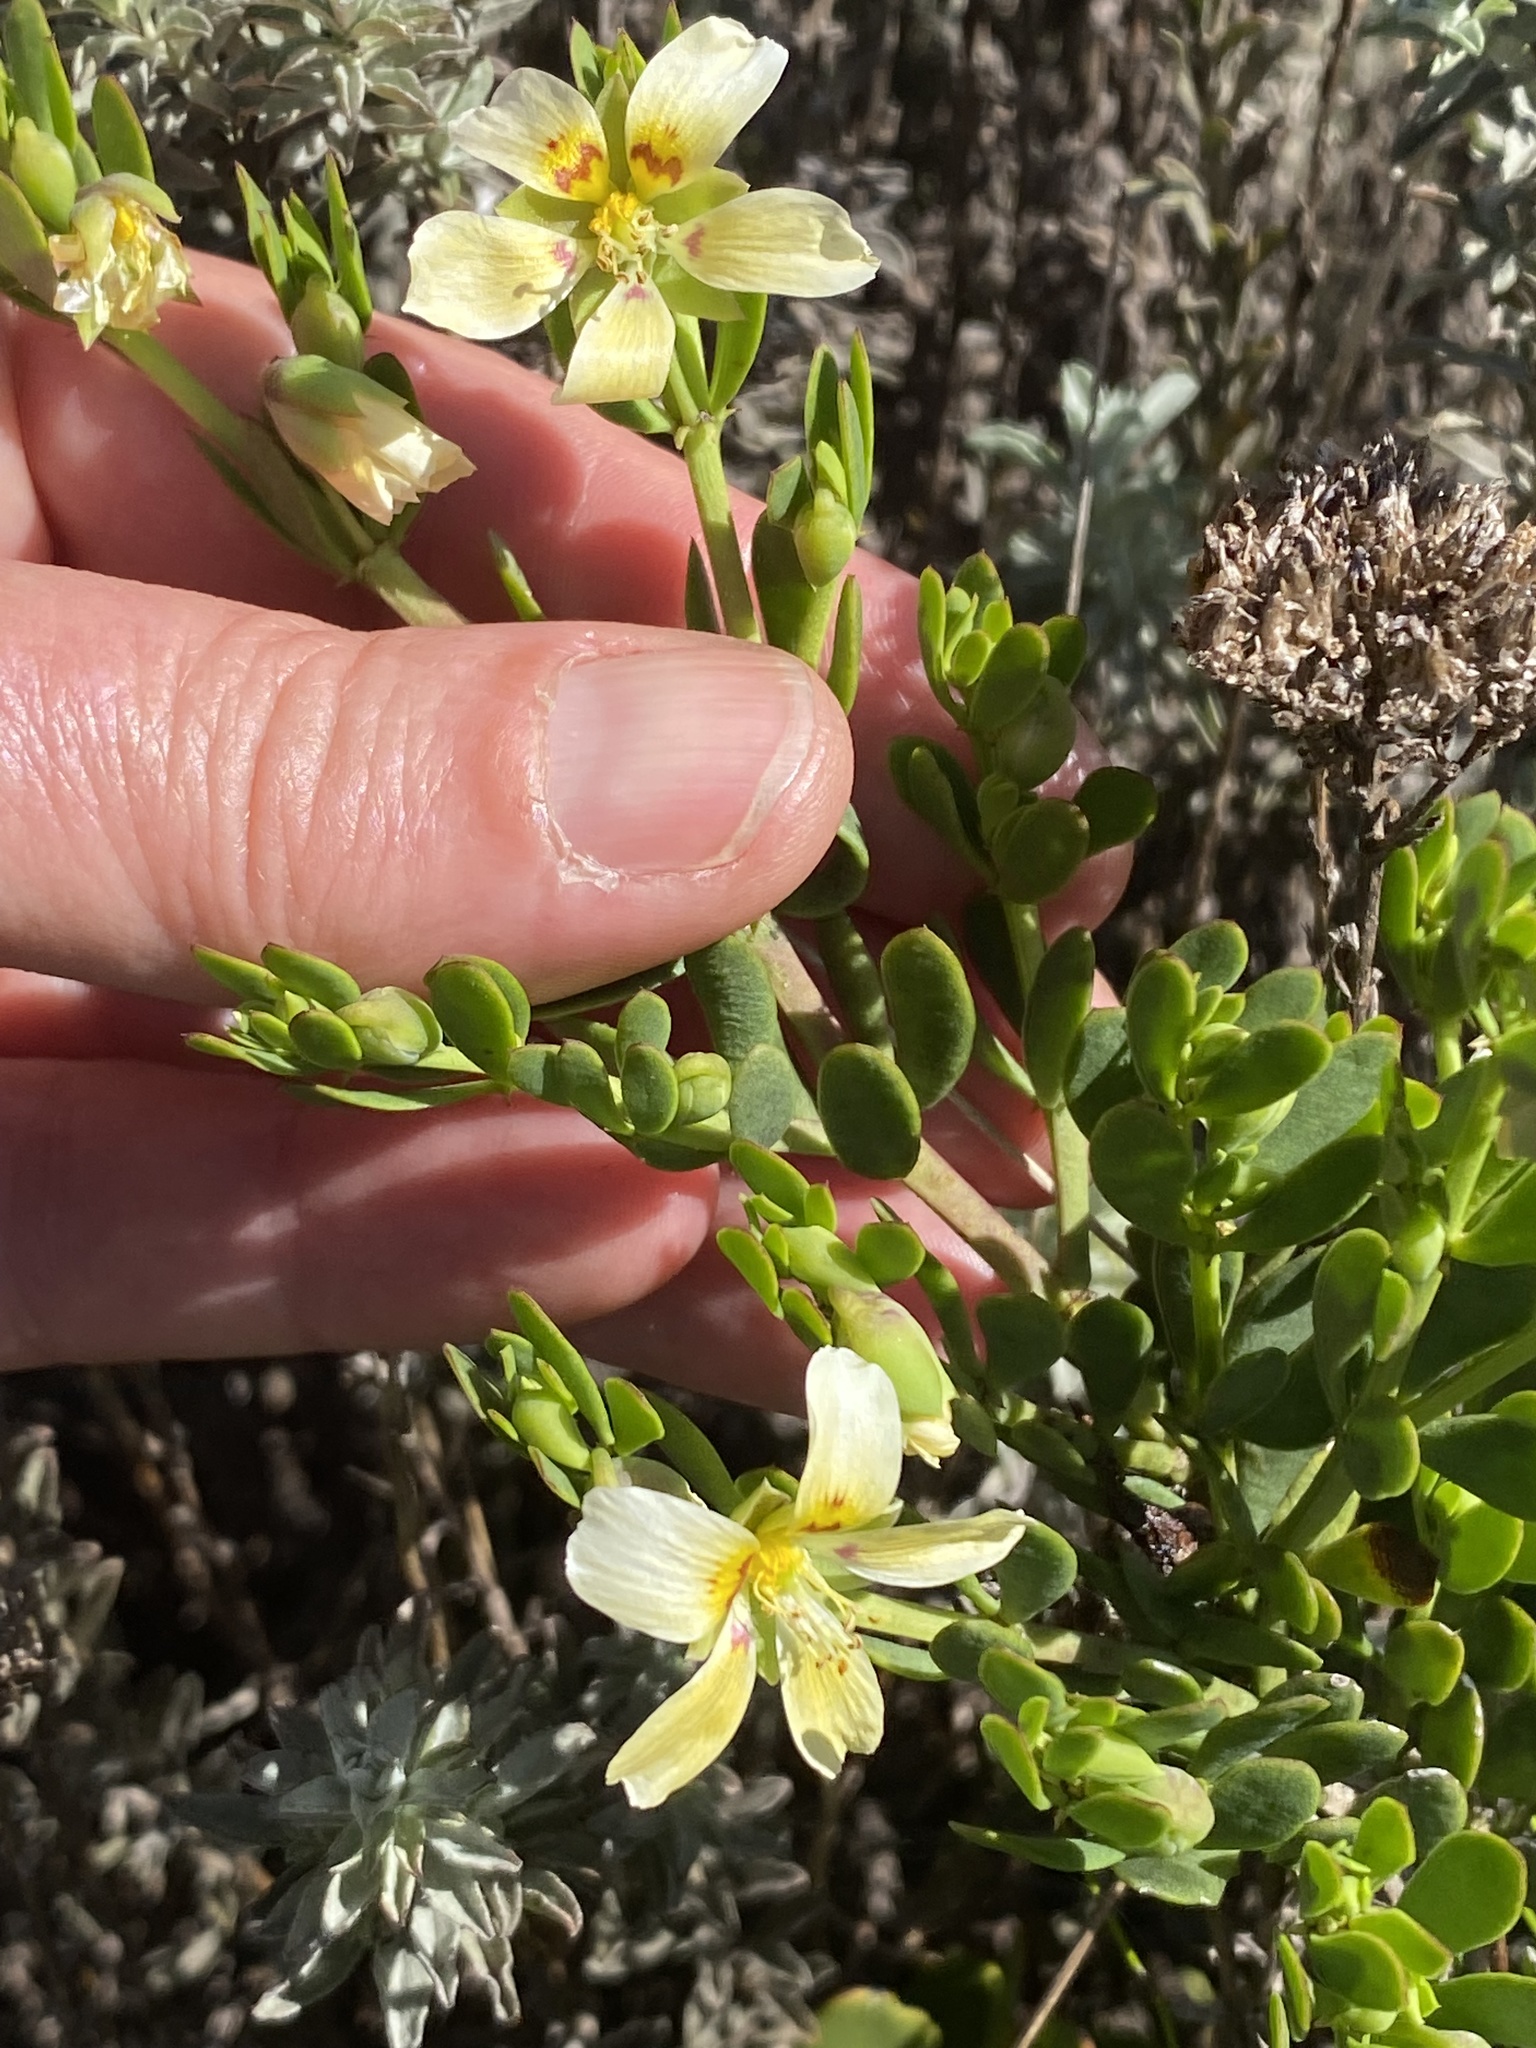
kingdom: Plantae
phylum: Tracheophyta
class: Magnoliopsida
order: Zygophyllales
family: Zygophyllaceae
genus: Roepera
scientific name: Roepera fulva
